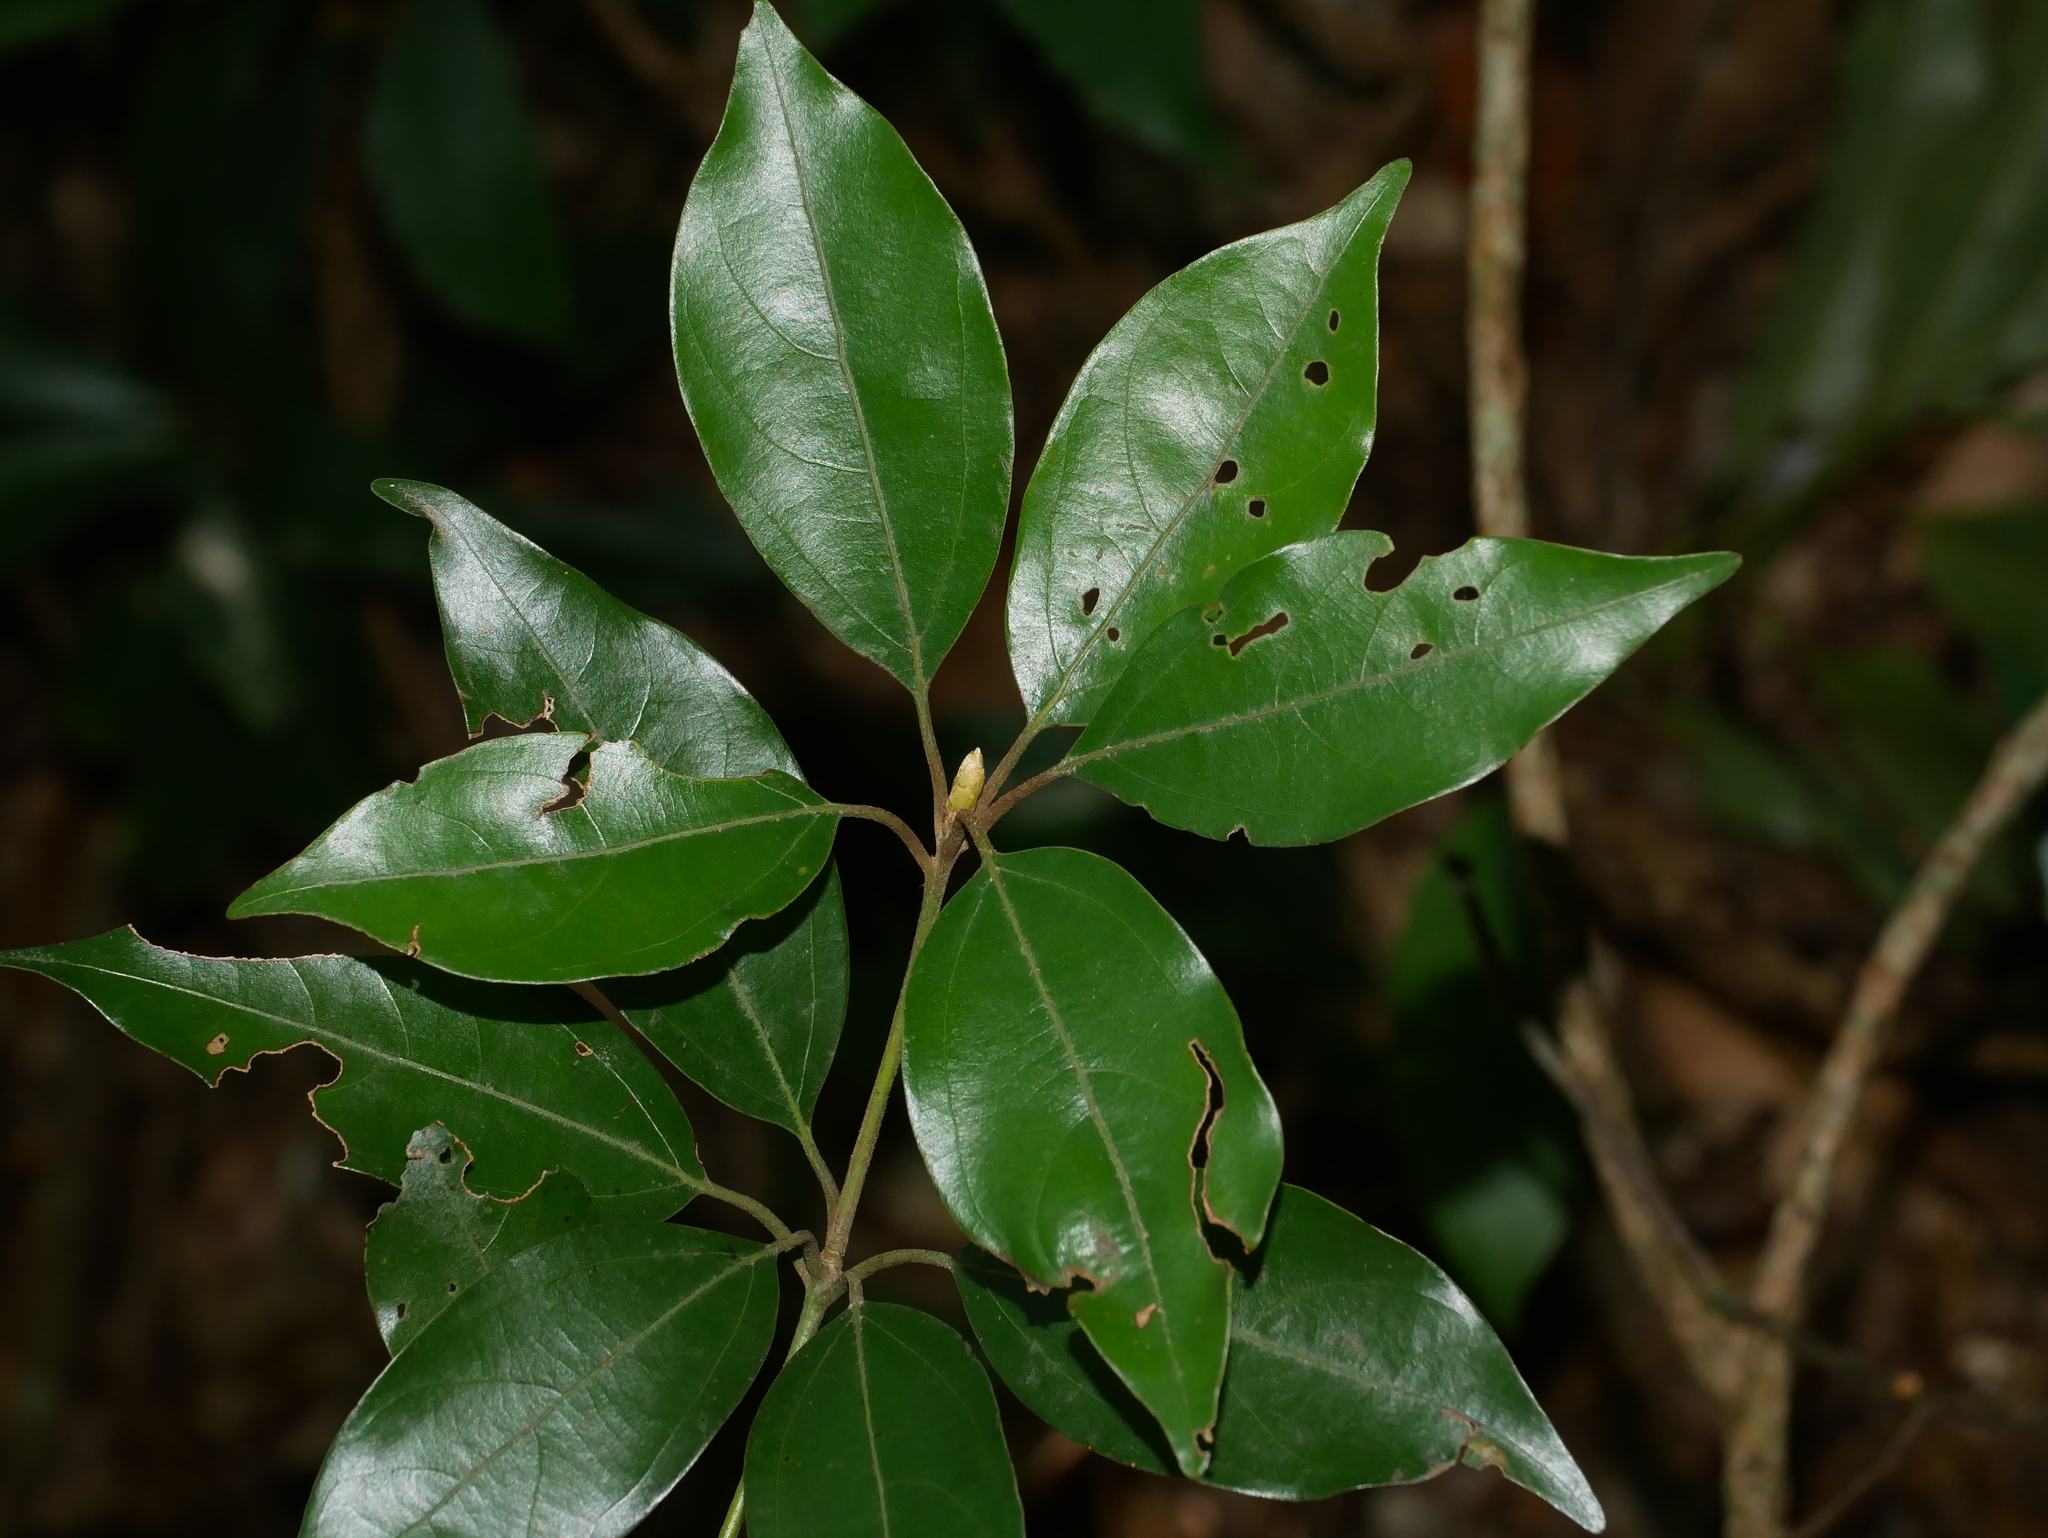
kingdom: Plantae
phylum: Tracheophyta
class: Magnoliopsida
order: Laurales
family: Lauraceae
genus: Neolitsea
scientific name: Neolitsea sericea
